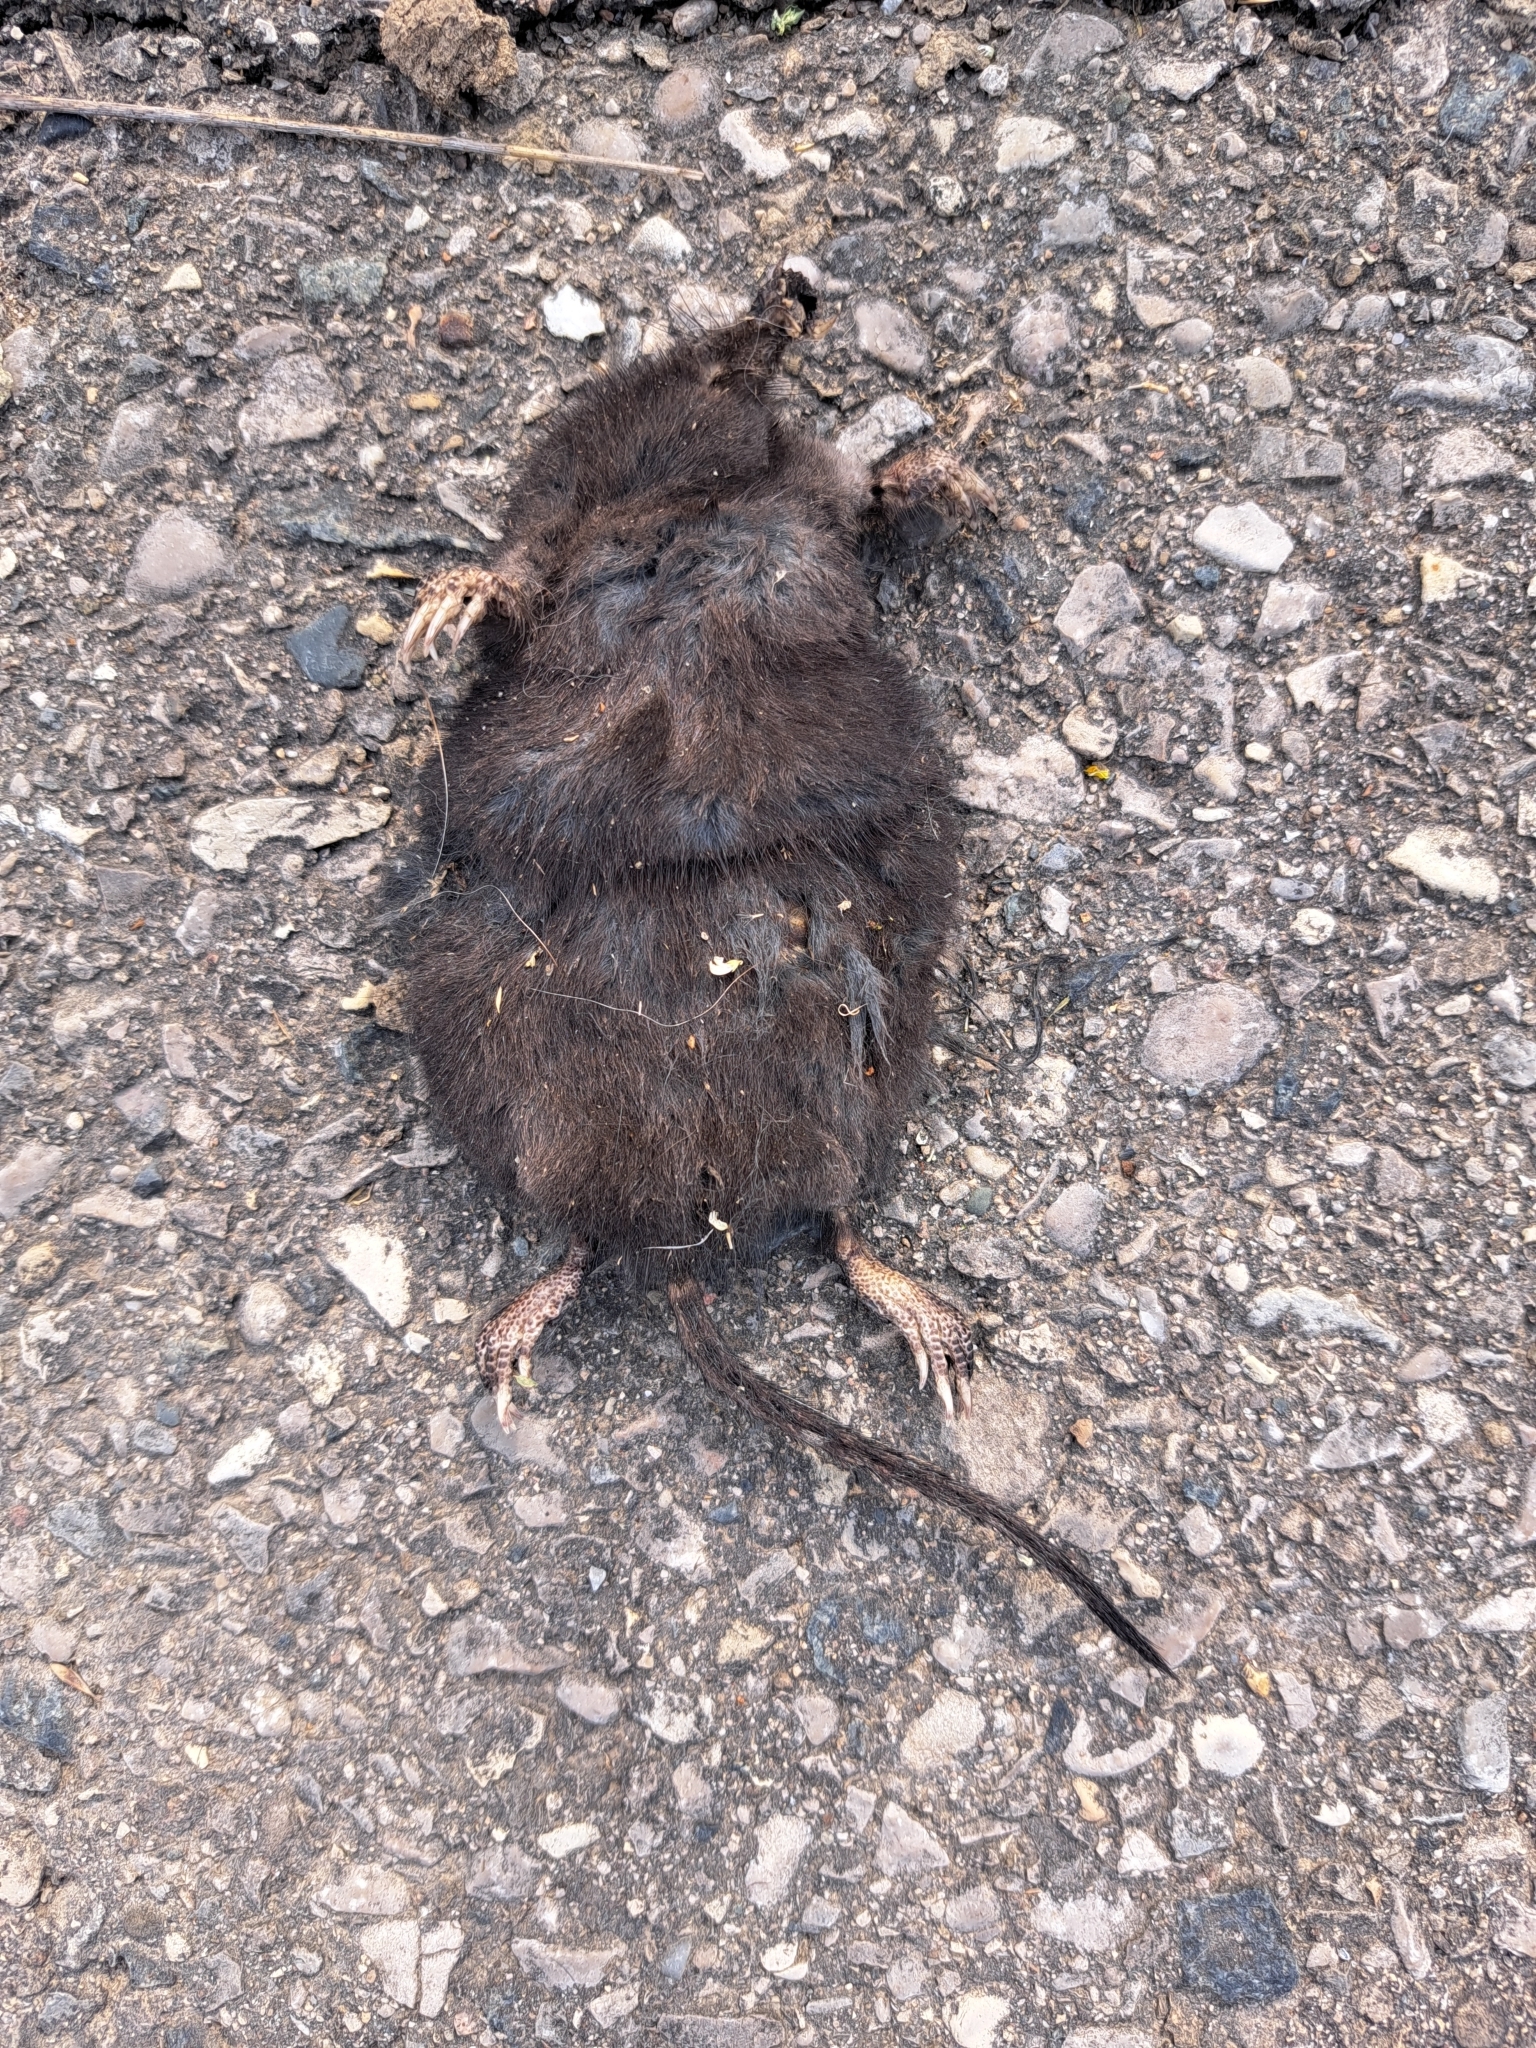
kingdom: Animalia
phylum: Chordata
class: Mammalia
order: Soricomorpha
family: Talpidae
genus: Condylura
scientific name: Condylura cristata
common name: Star-nosed mole
